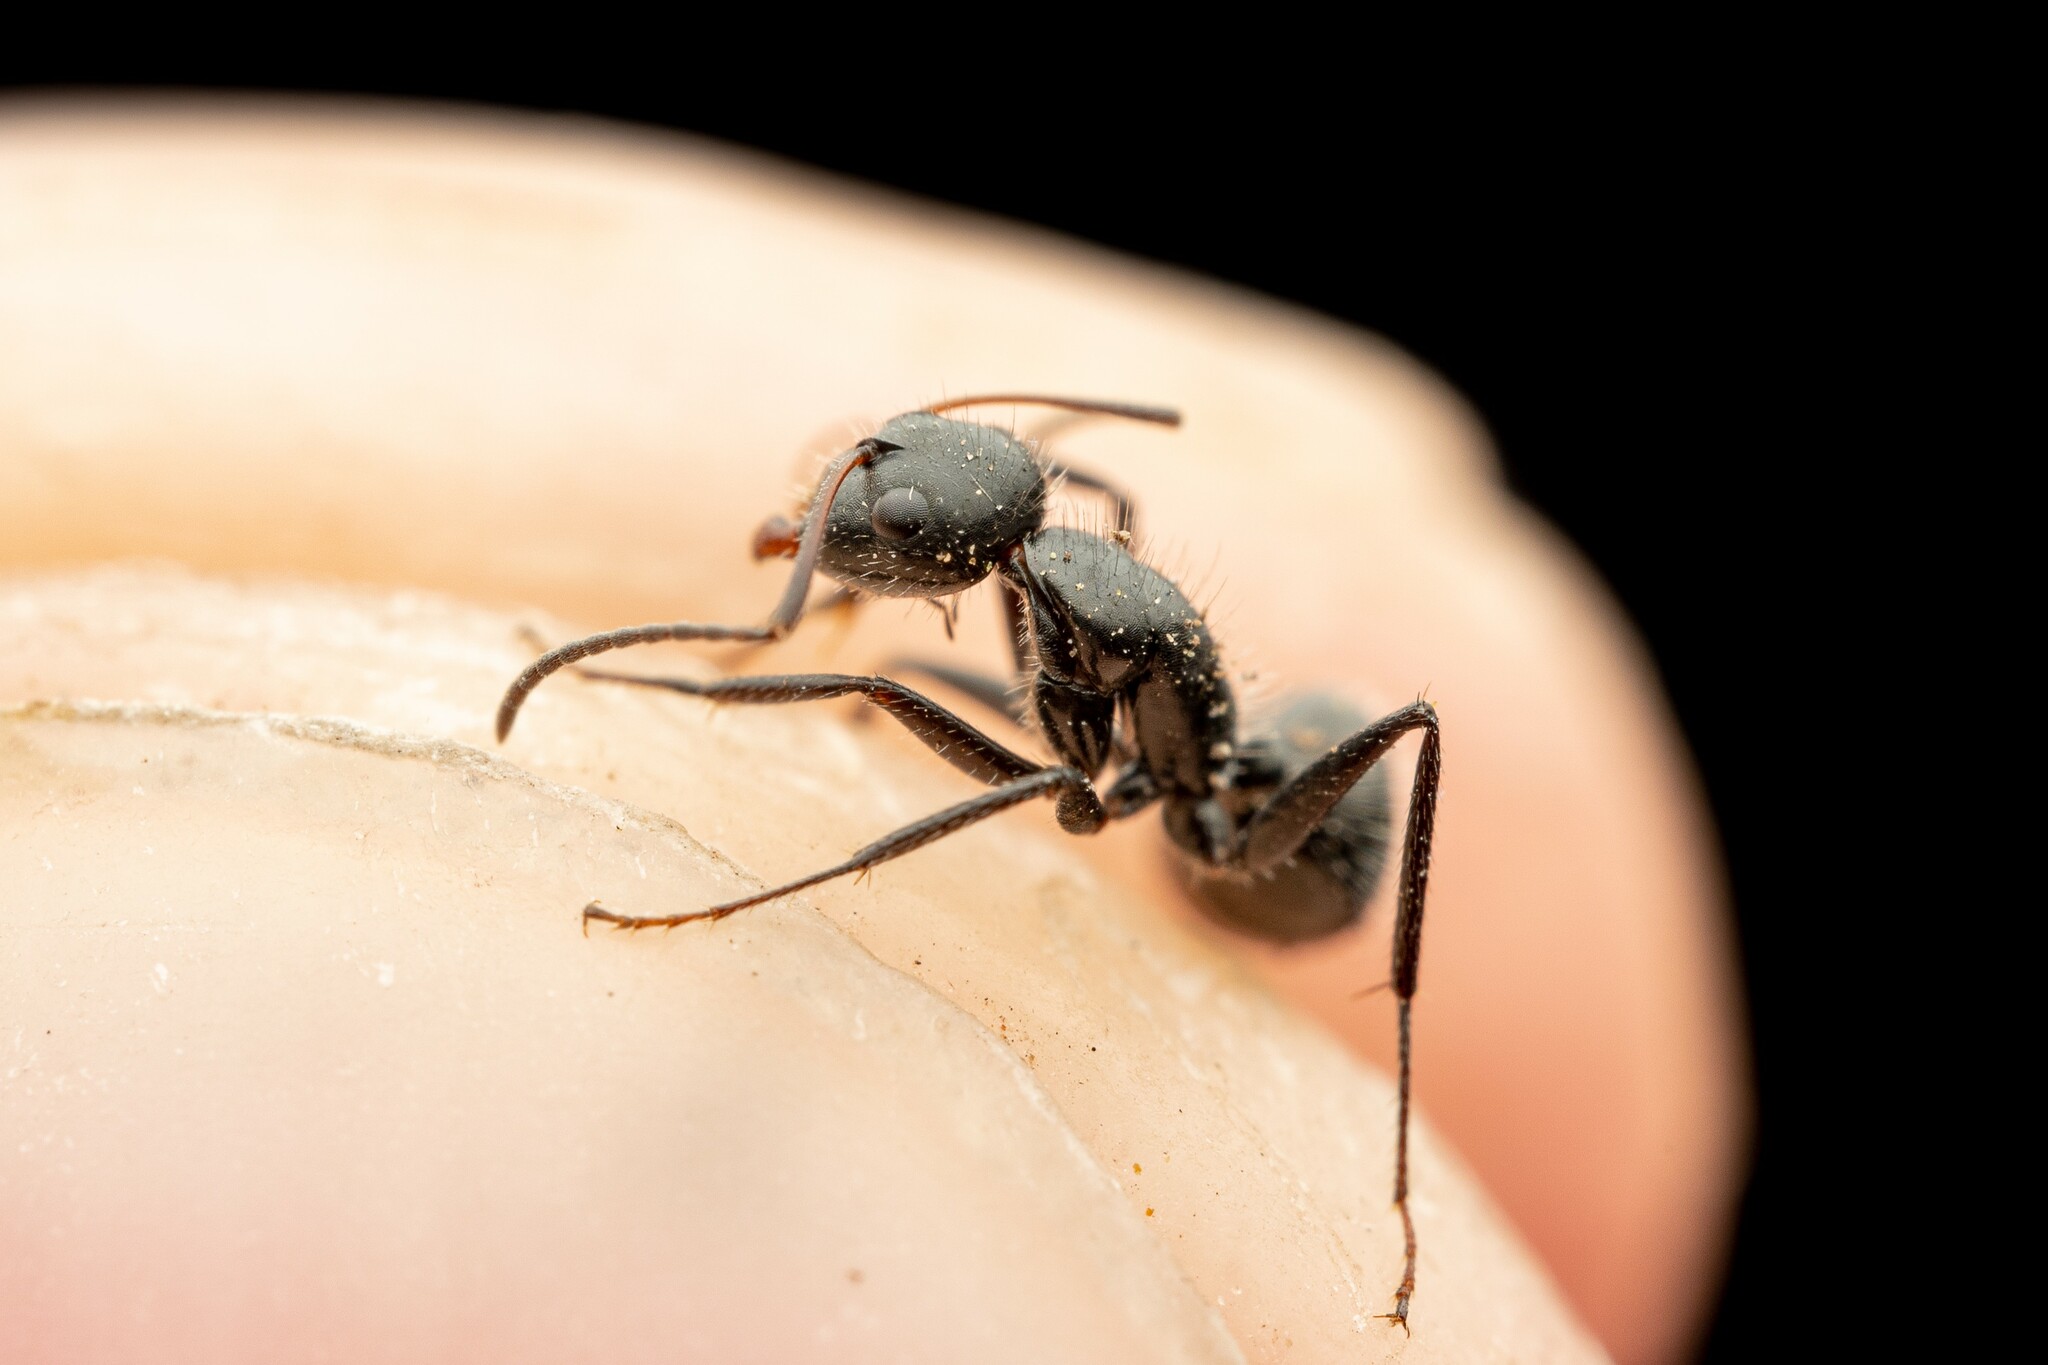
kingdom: Animalia
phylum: Arthropoda
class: Insecta
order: Hymenoptera
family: Formicidae
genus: Camponotus
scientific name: Camponotus ulcerosus
